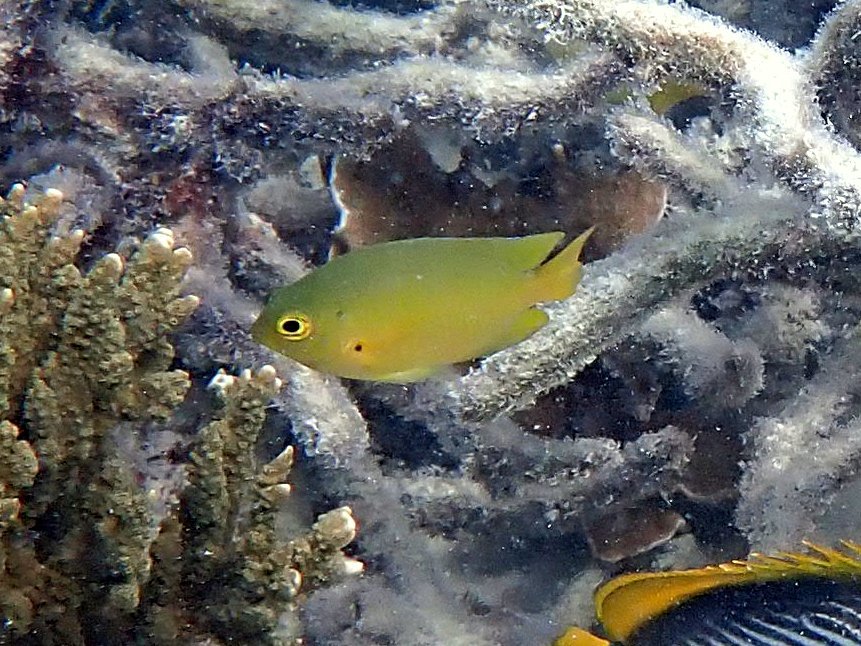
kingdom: Animalia
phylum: Chordata
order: Perciformes
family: Pomacentridae
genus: Pomacentrus
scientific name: Pomacentrus amboinensis
